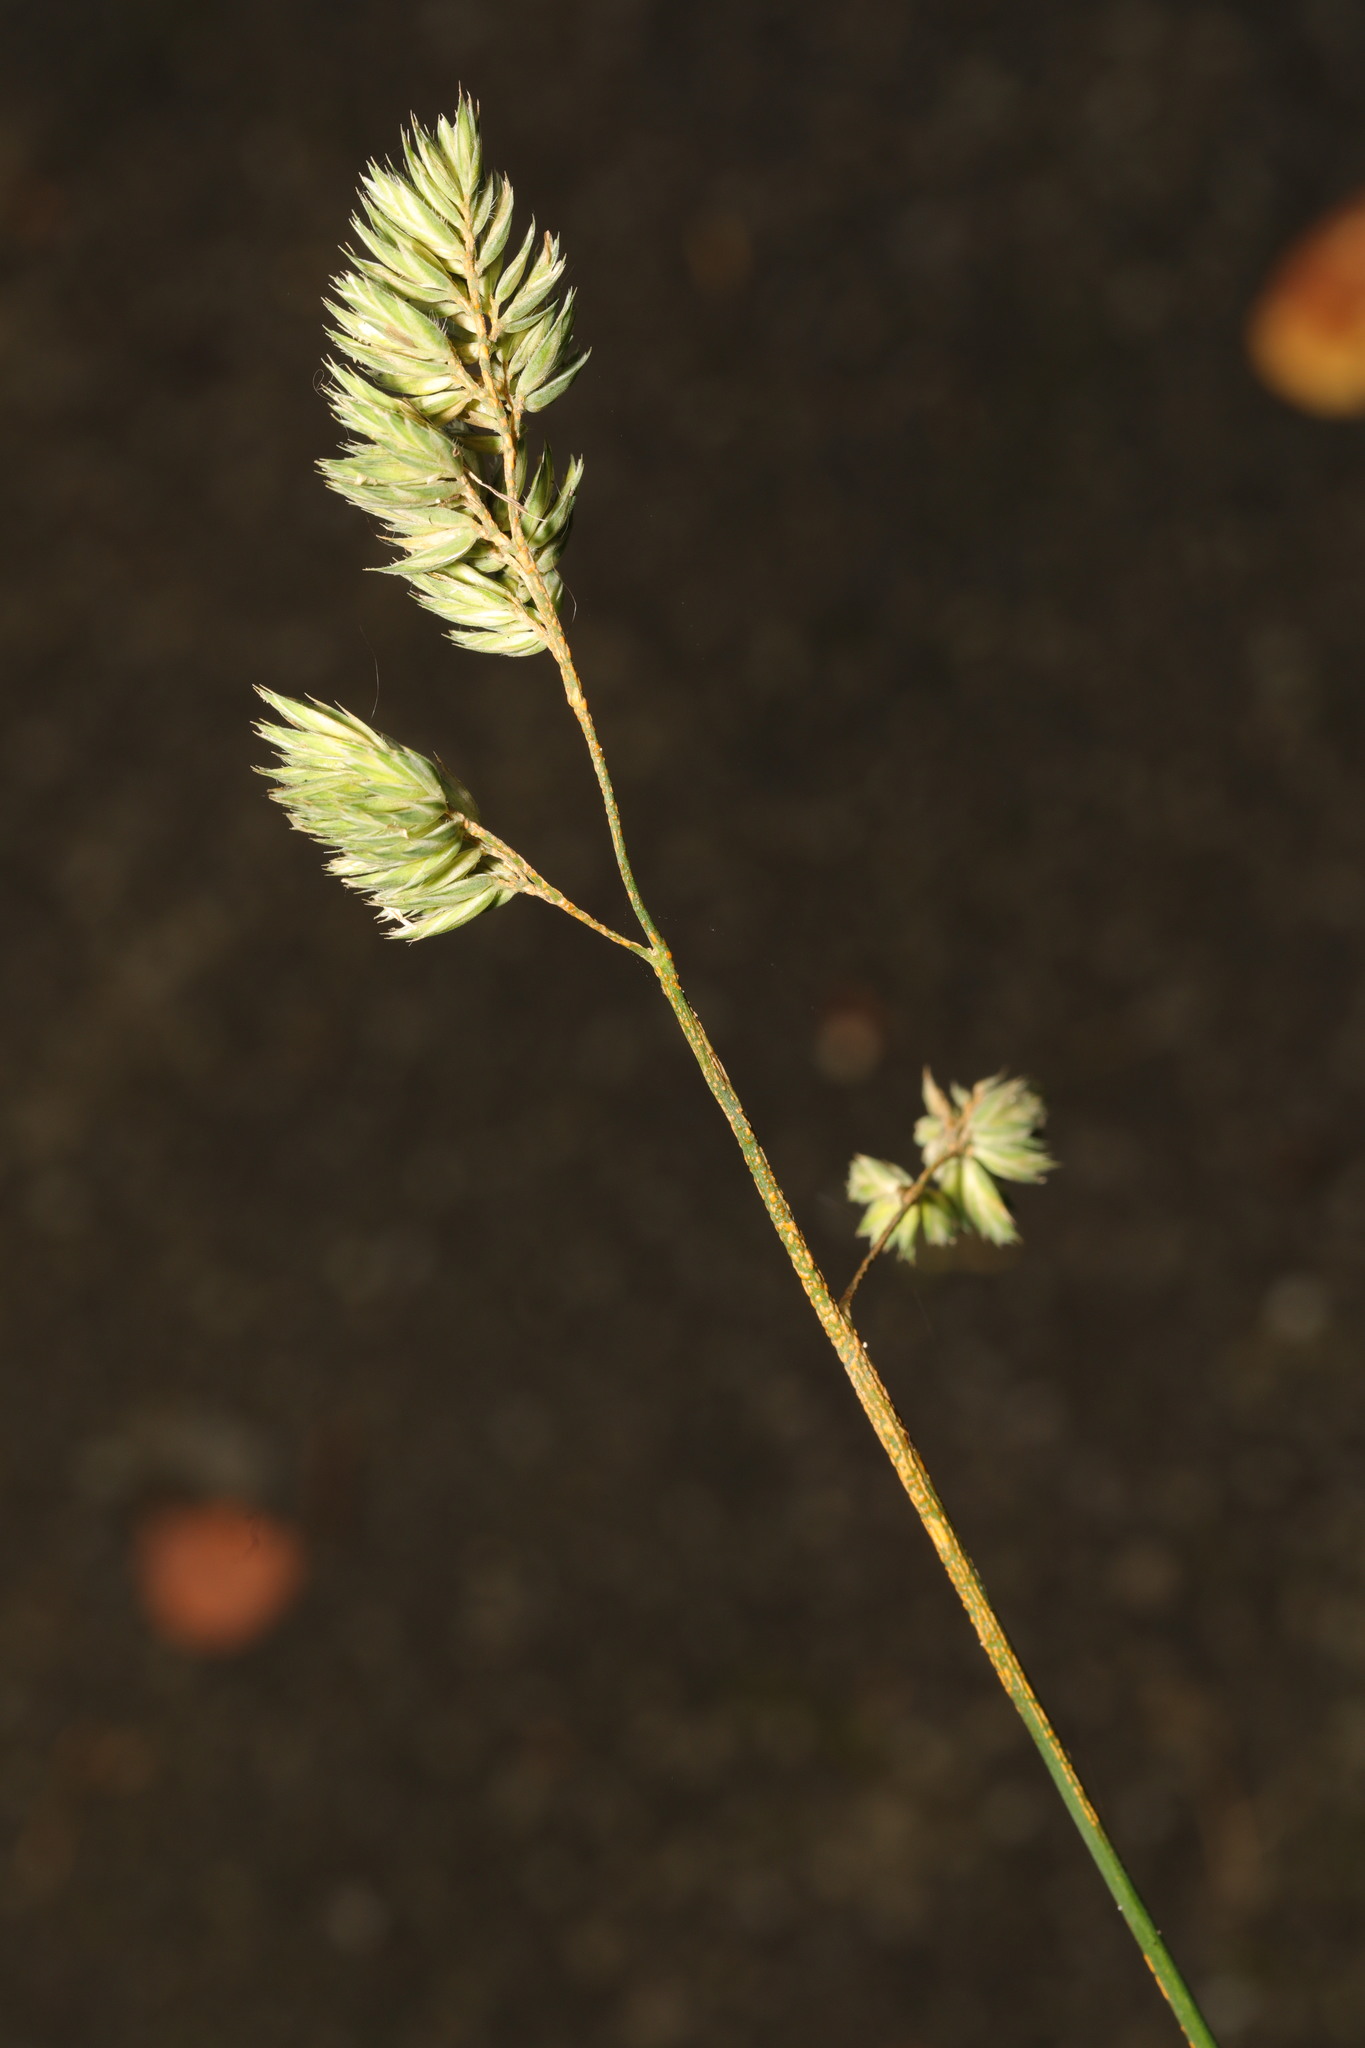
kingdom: Plantae
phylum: Tracheophyta
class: Liliopsida
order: Poales
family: Poaceae
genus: Dactylis
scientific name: Dactylis glomerata
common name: Orchardgrass
